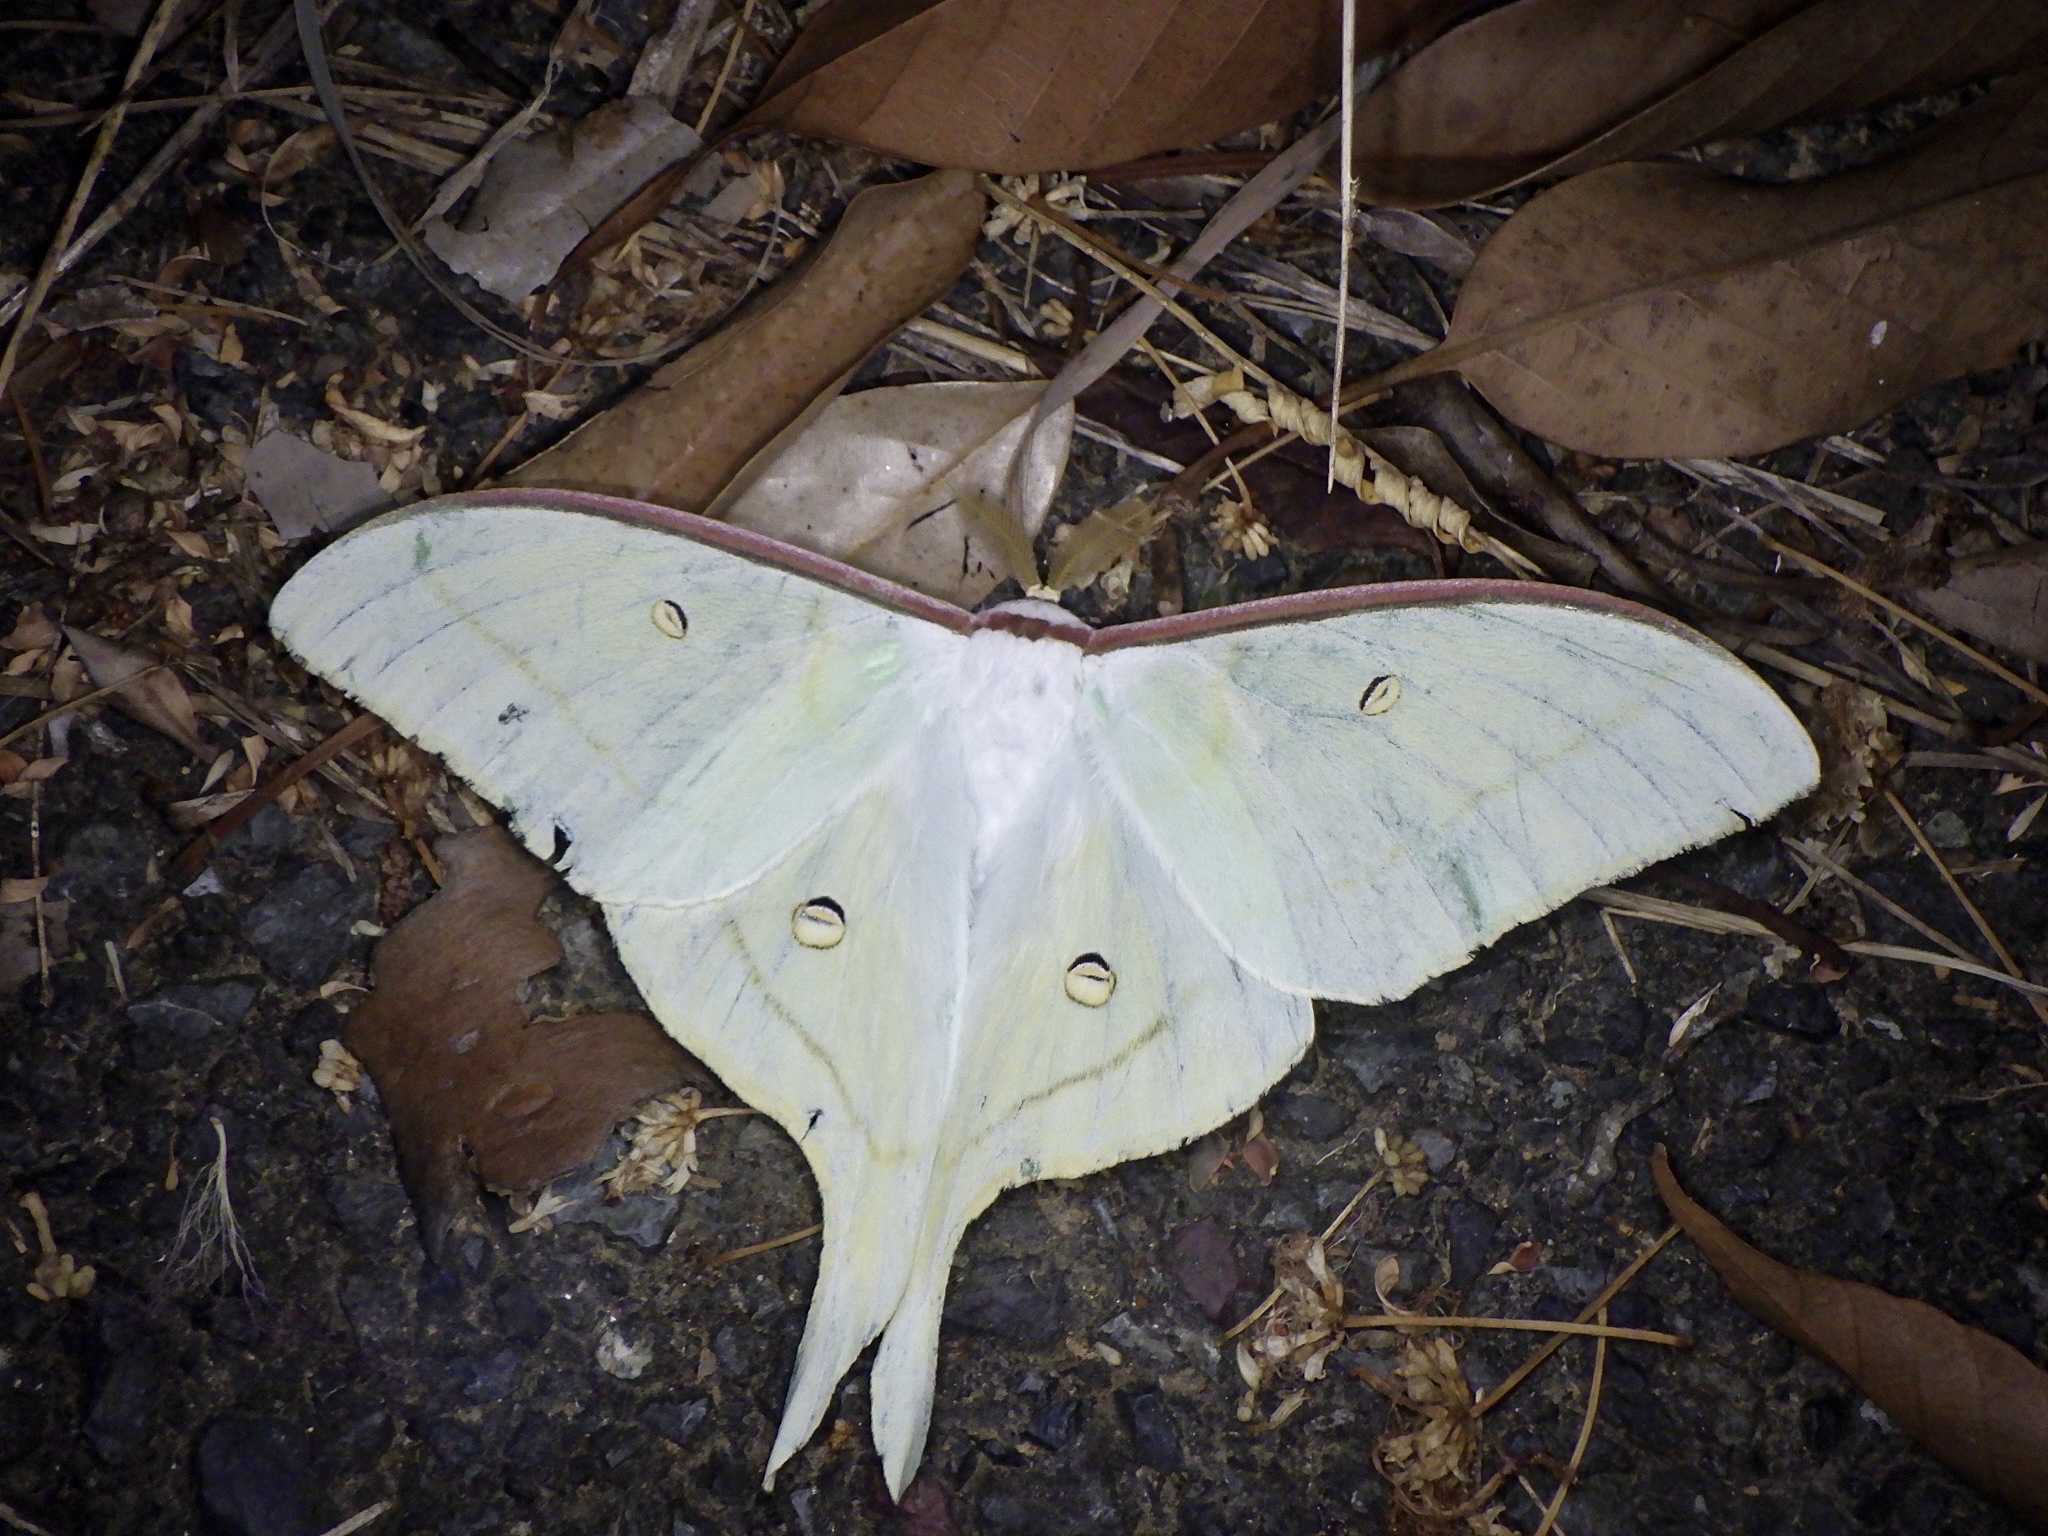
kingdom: Animalia
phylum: Arthropoda
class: Insecta
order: Lepidoptera
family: Saturniidae
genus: Actias
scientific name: Actias aliena
